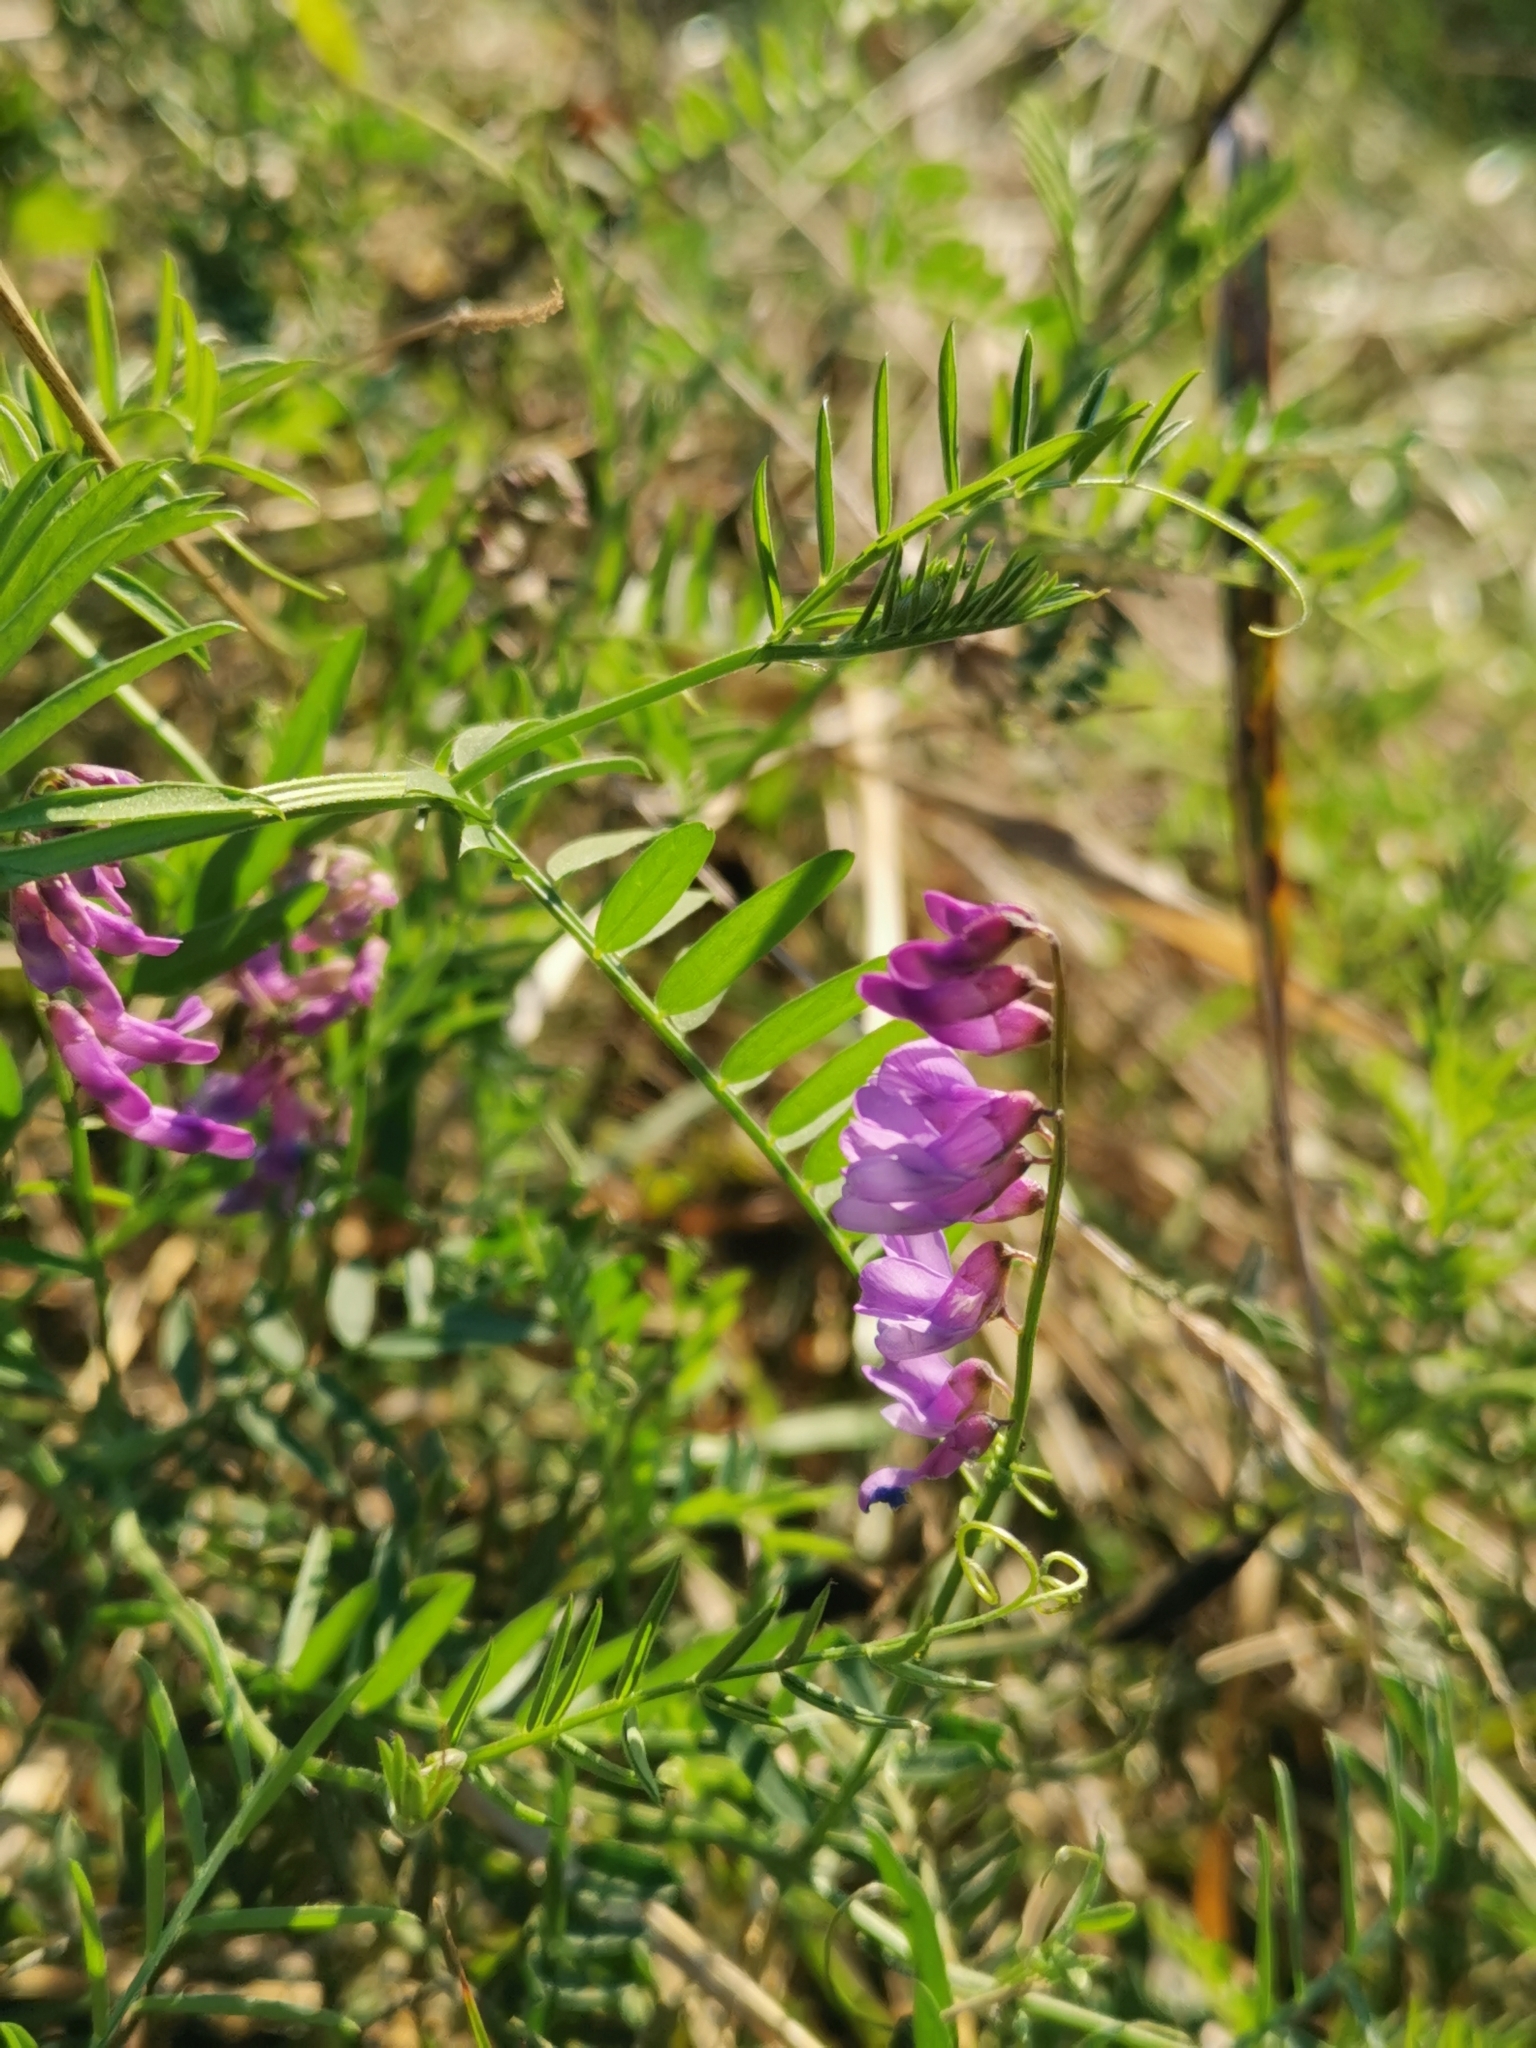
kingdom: Plantae
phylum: Tracheophyta
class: Magnoliopsida
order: Fabales
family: Fabaceae
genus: Vicia
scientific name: Vicia cracca
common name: Bird vetch
